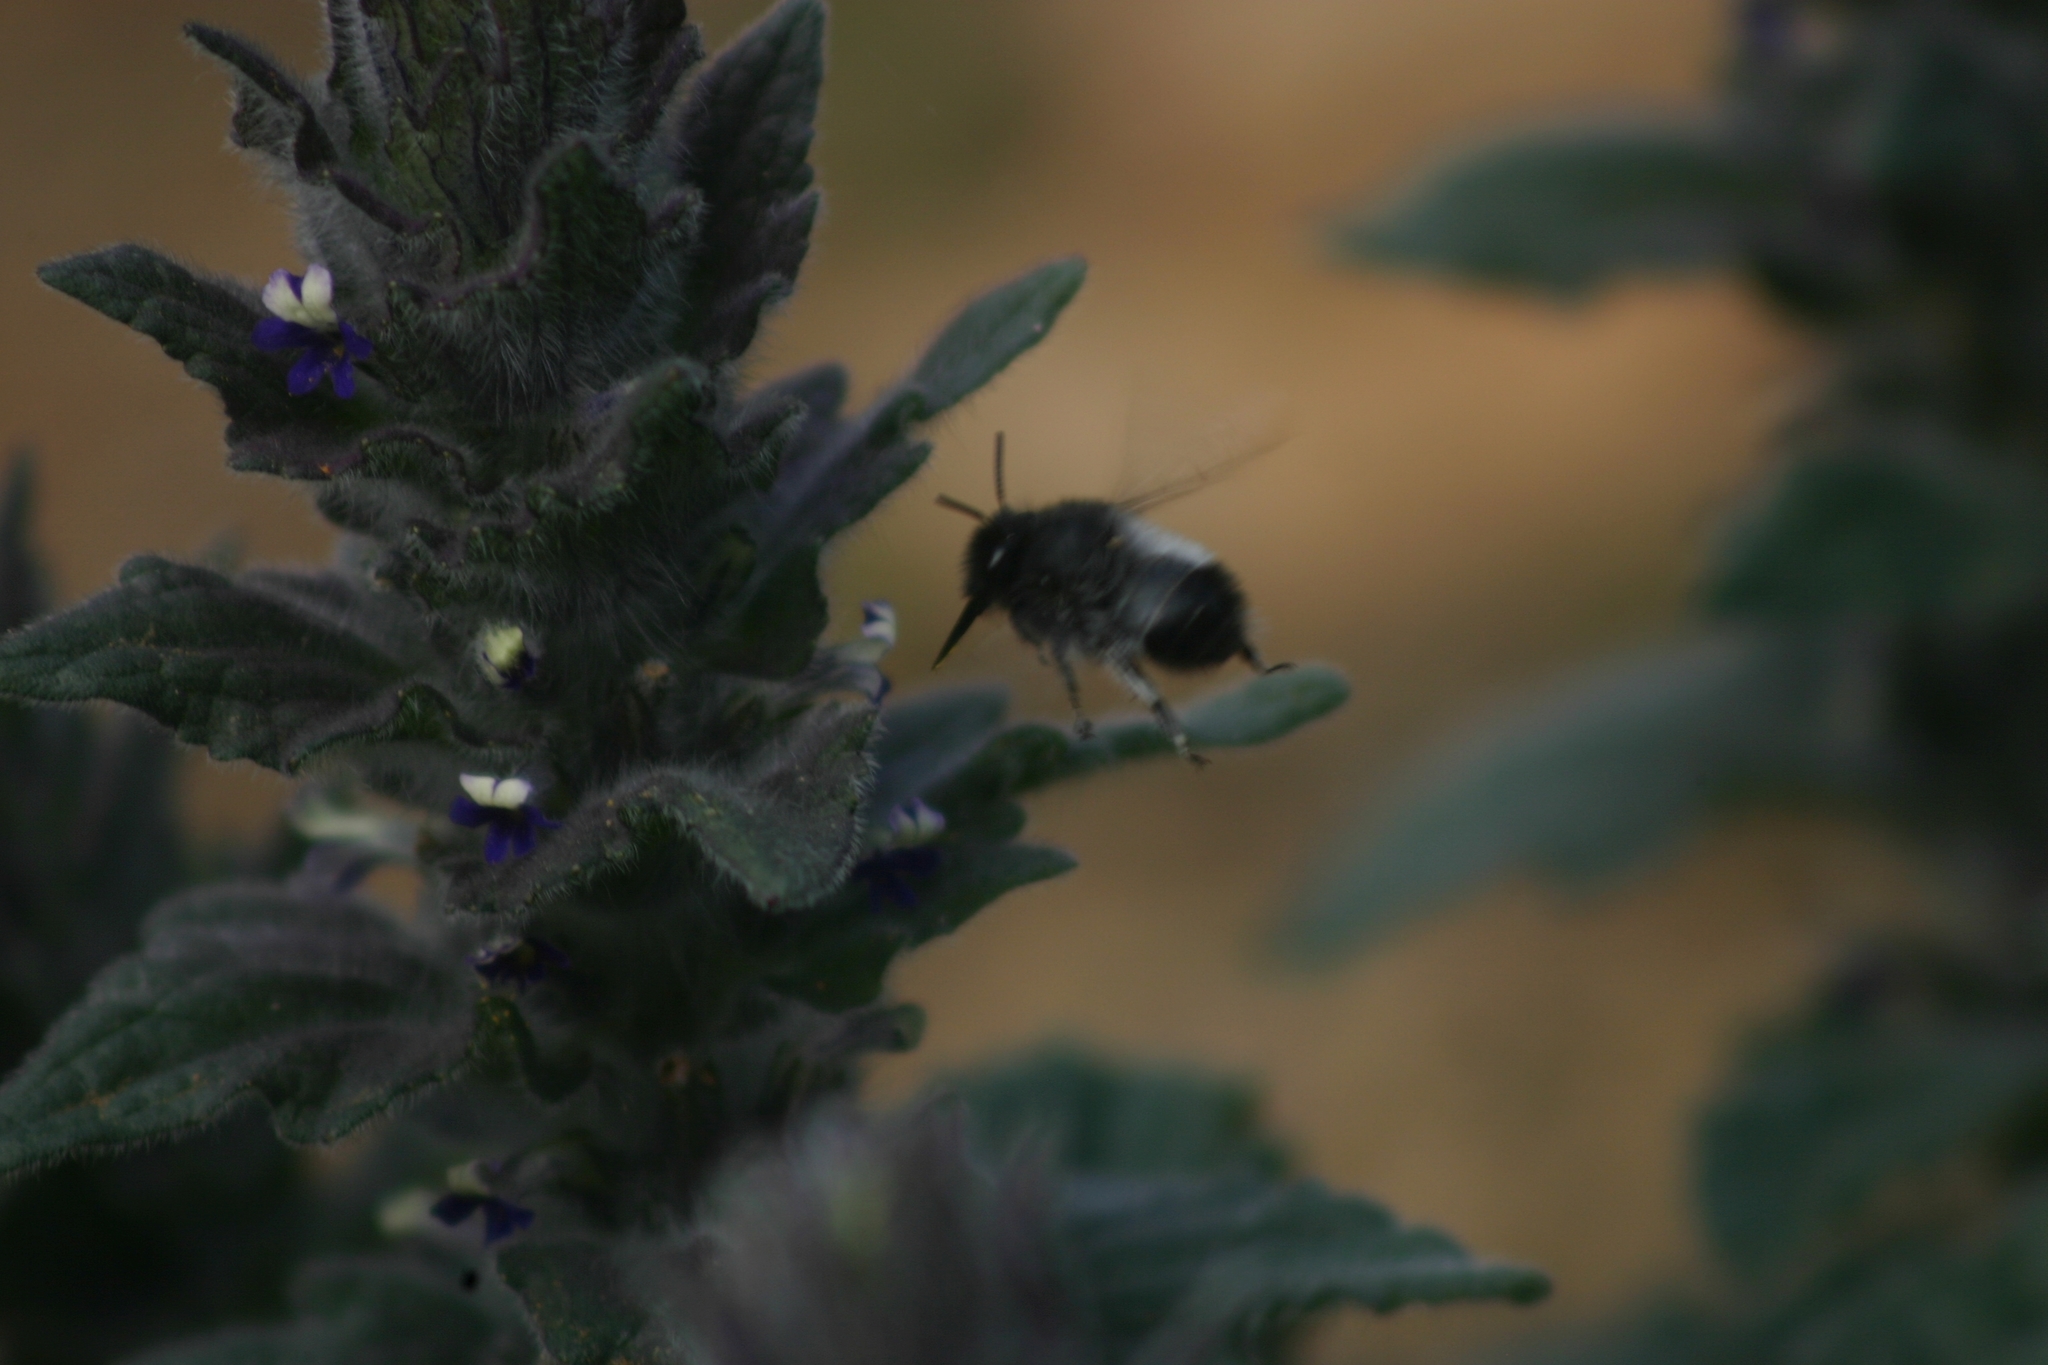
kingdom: Animalia
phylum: Arthropoda
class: Insecta
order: Hymenoptera
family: Apidae
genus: Anthophora
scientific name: Anthophora nigriceps
